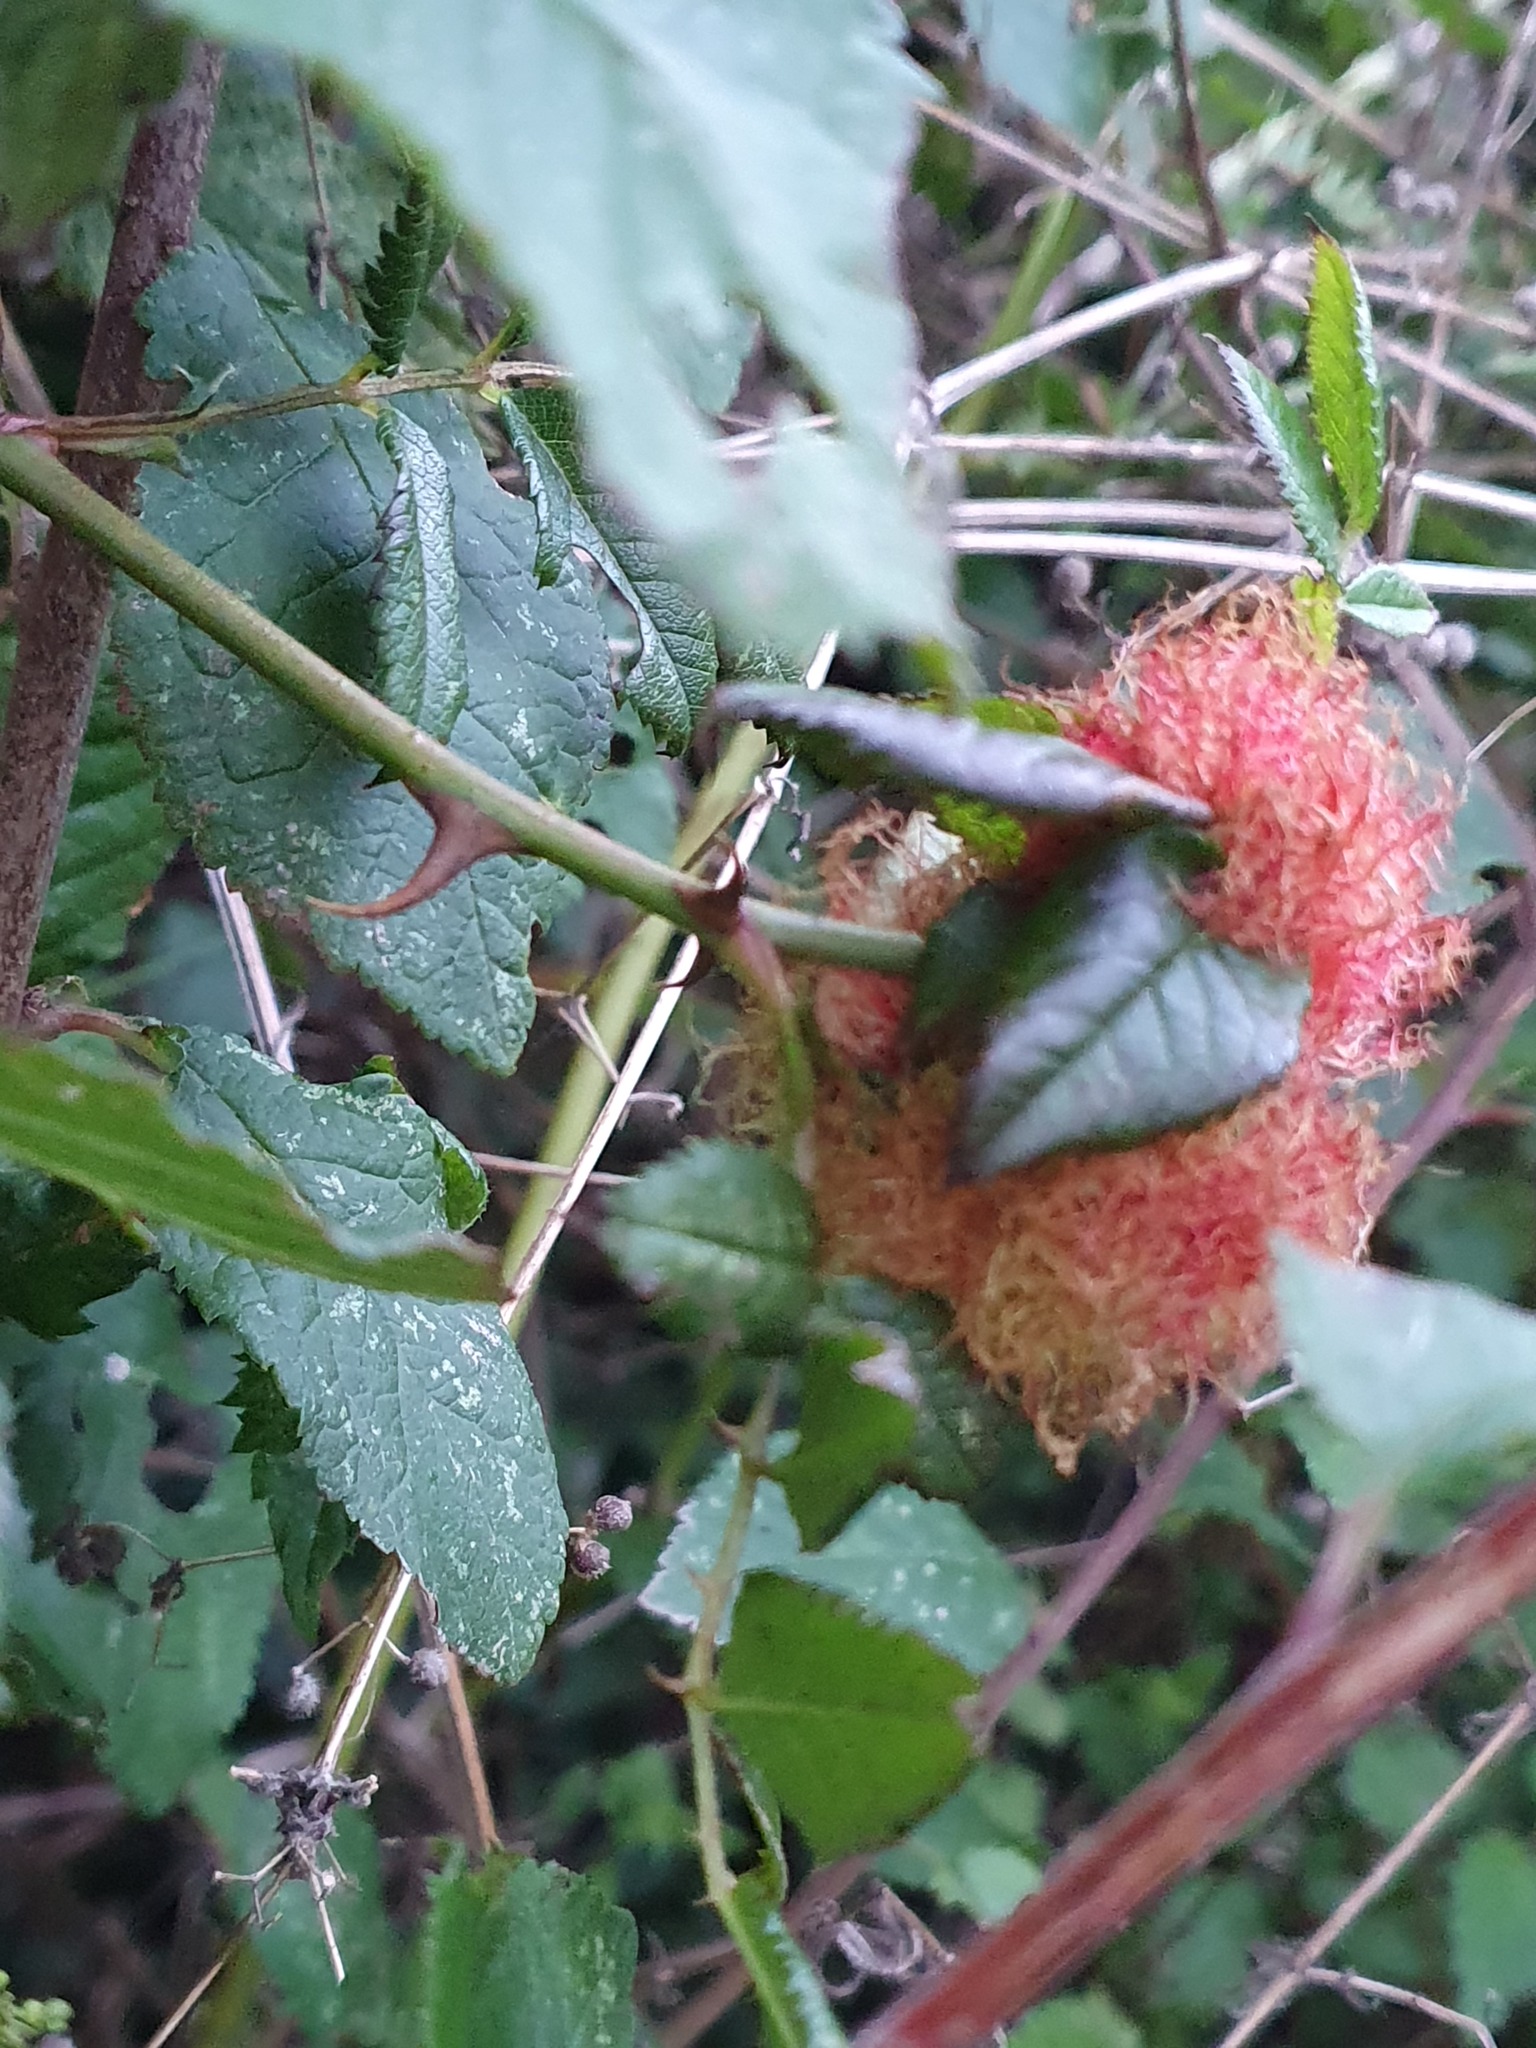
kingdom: Animalia
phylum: Arthropoda
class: Insecta
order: Hymenoptera
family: Cynipidae
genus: Diplolepis
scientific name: Diplolepis rosae
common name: Bedeguar gall
